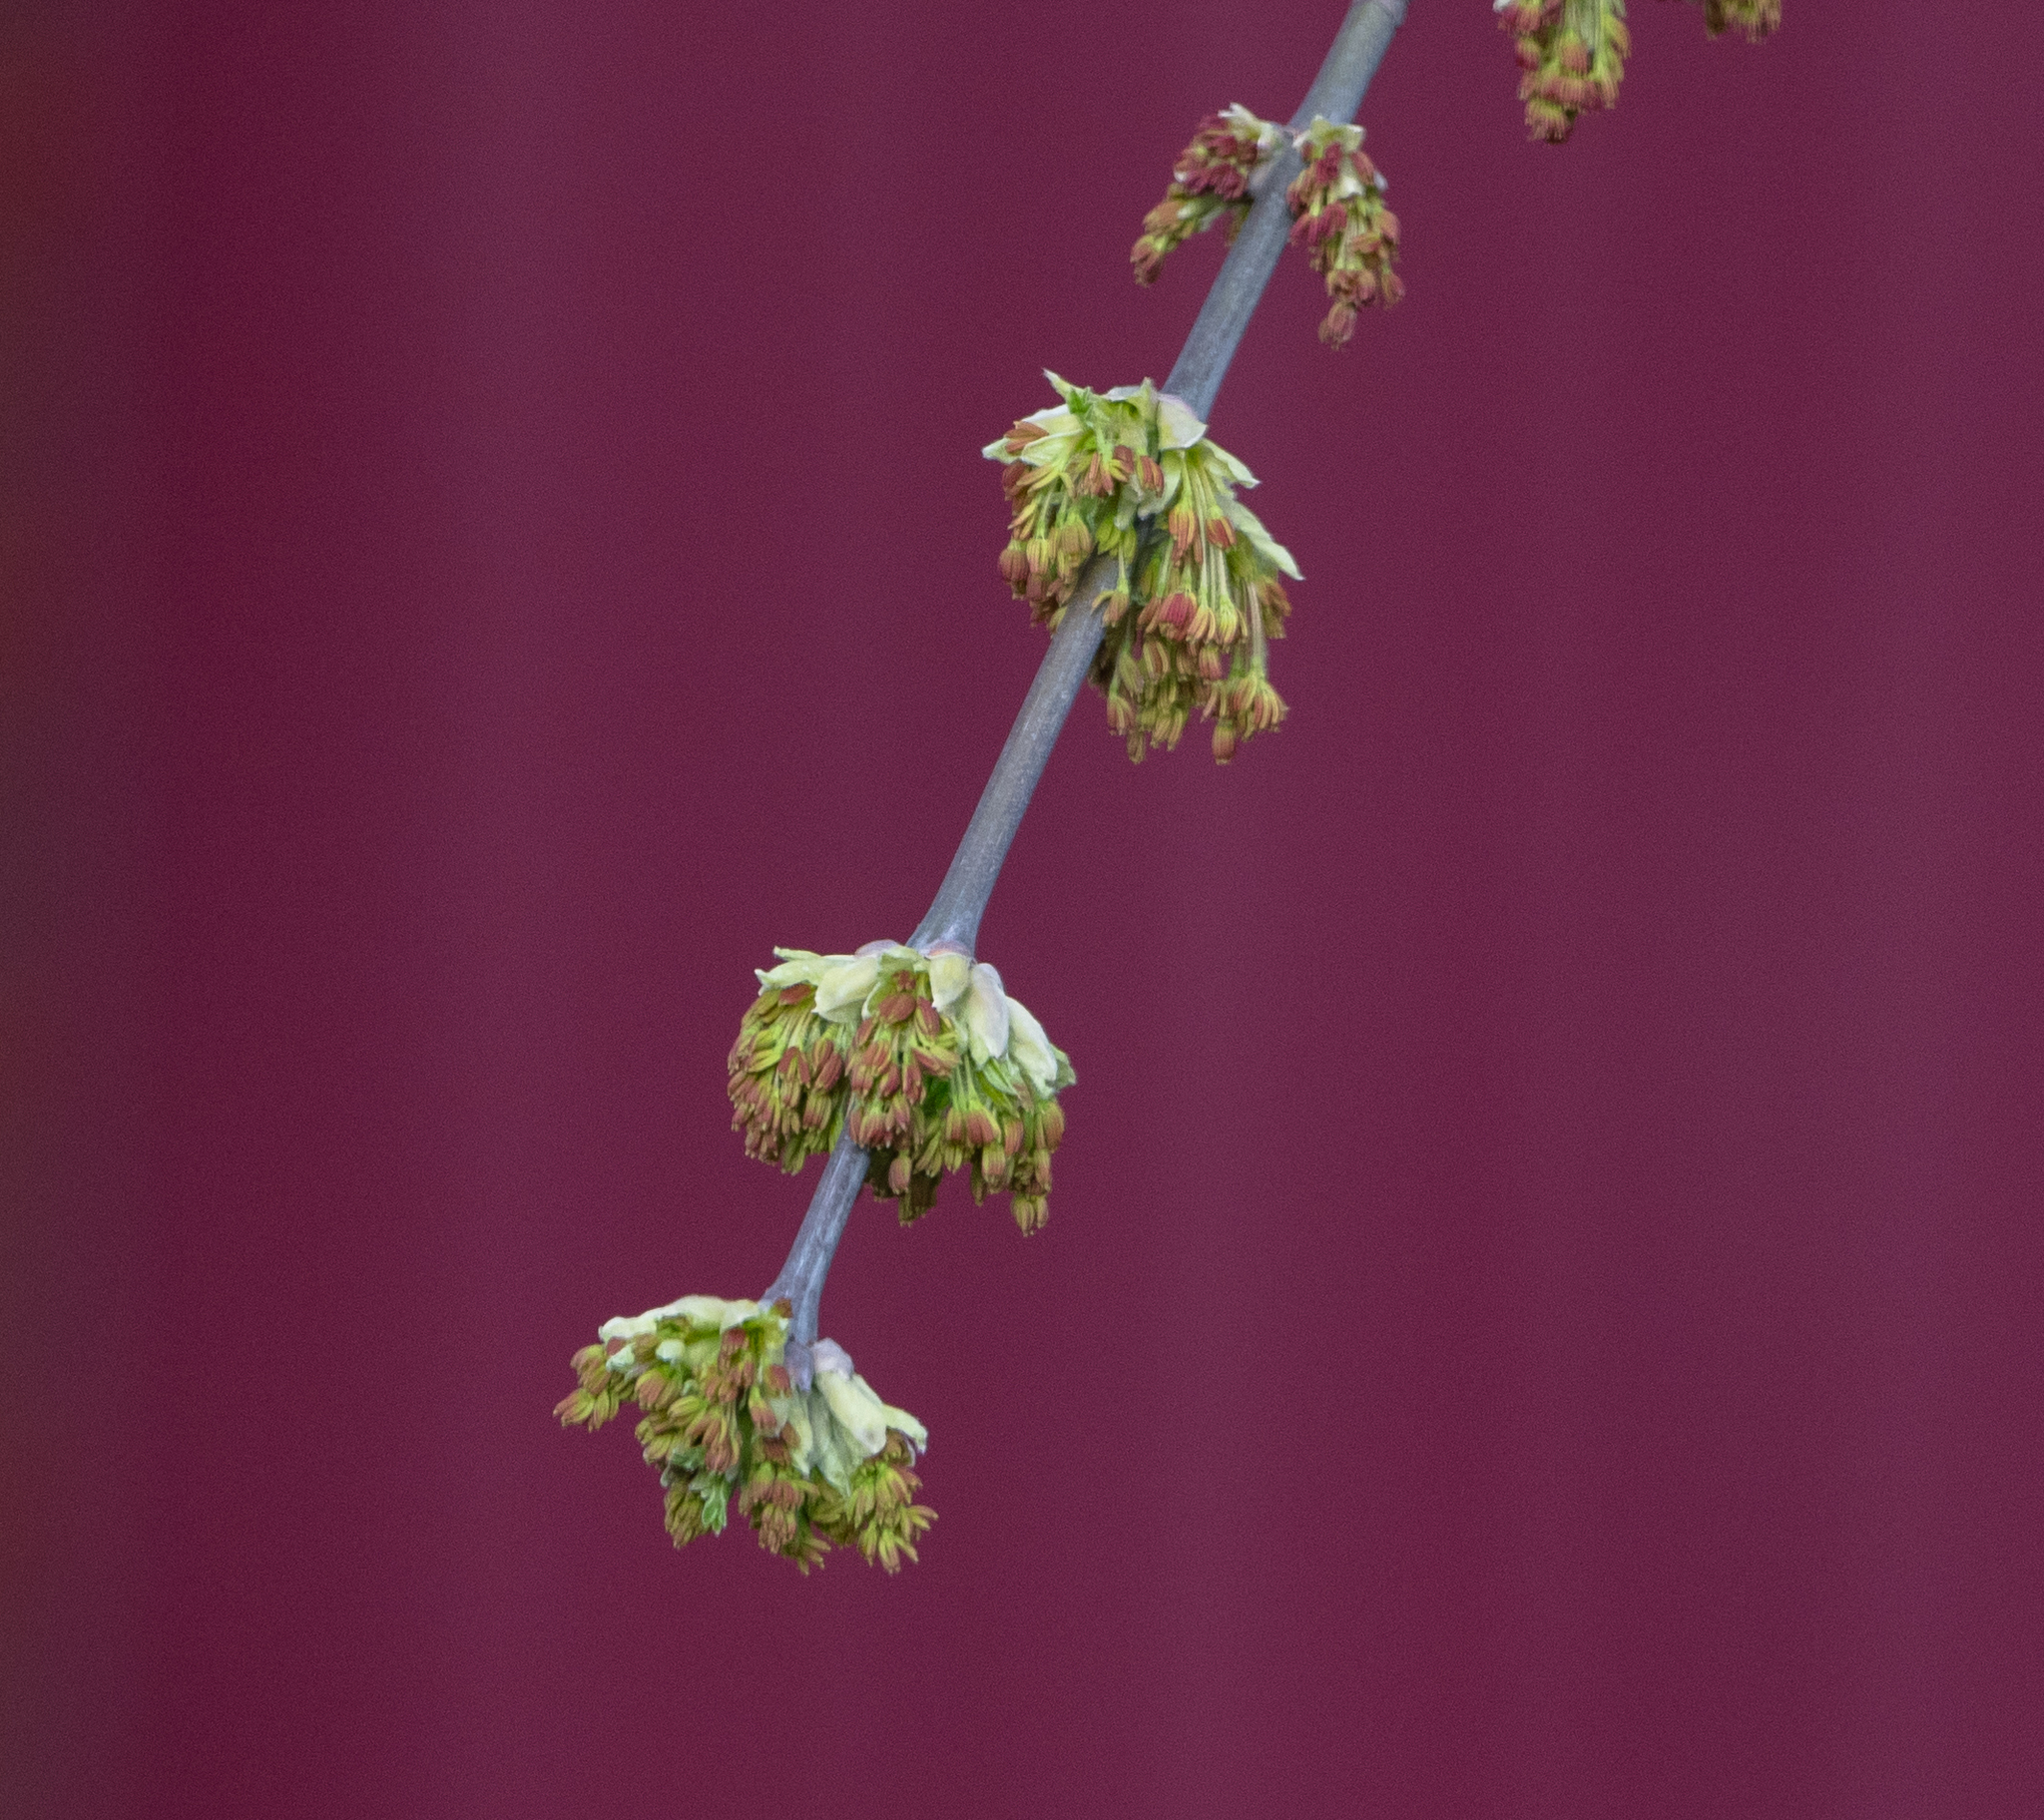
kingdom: Plantae
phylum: Tracheophyta
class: Magnoliopsida
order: Sapindales
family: Sapindaceae
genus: Acer
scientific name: Acer negundo
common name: Ashleaf maple
